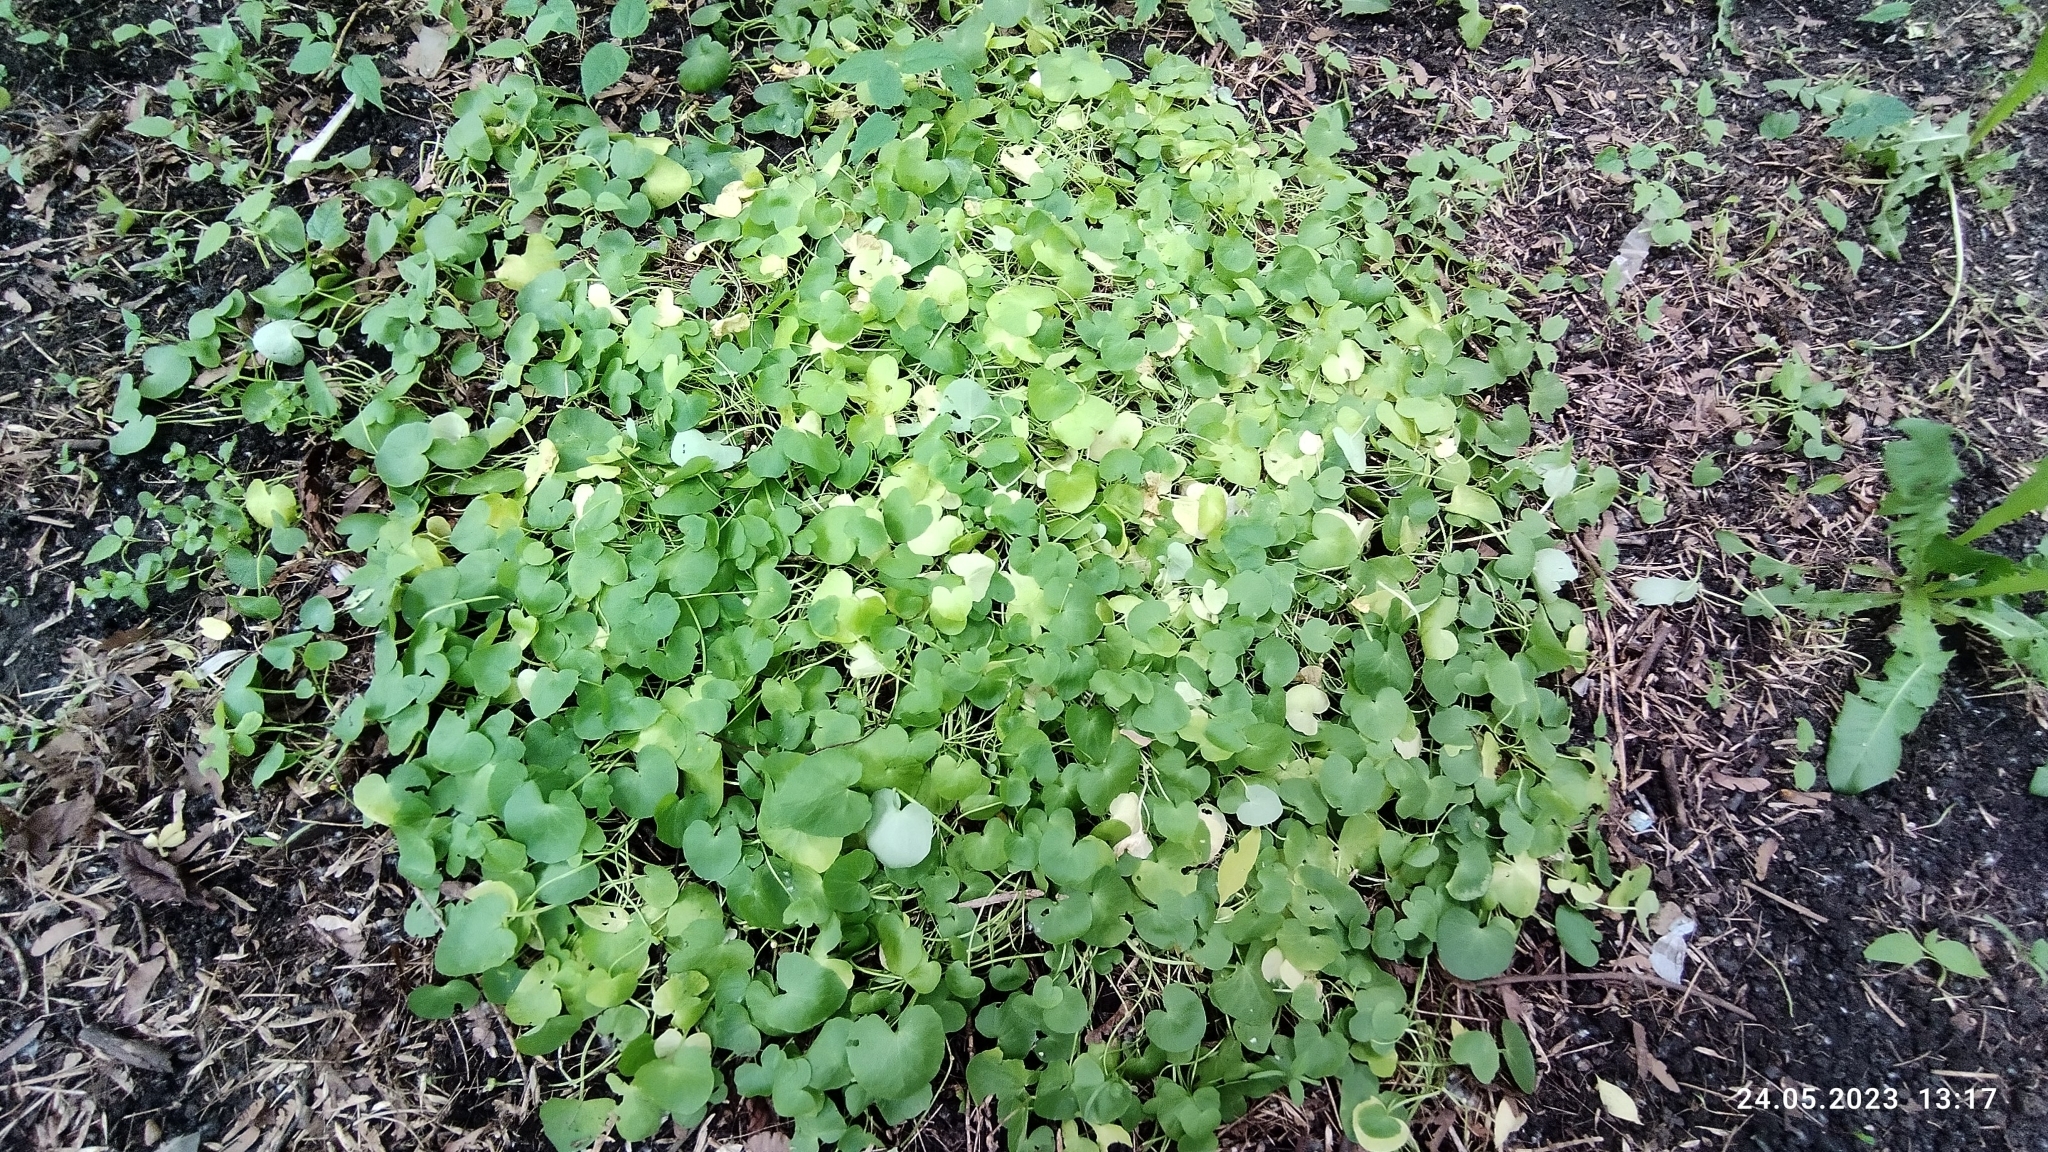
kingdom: Plantae
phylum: Tracheophyta
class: Magnoliopsida
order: Ranunculales
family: Ranunculaceae
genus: Ficaria
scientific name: Ficaria verna
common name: Lesser celandine
